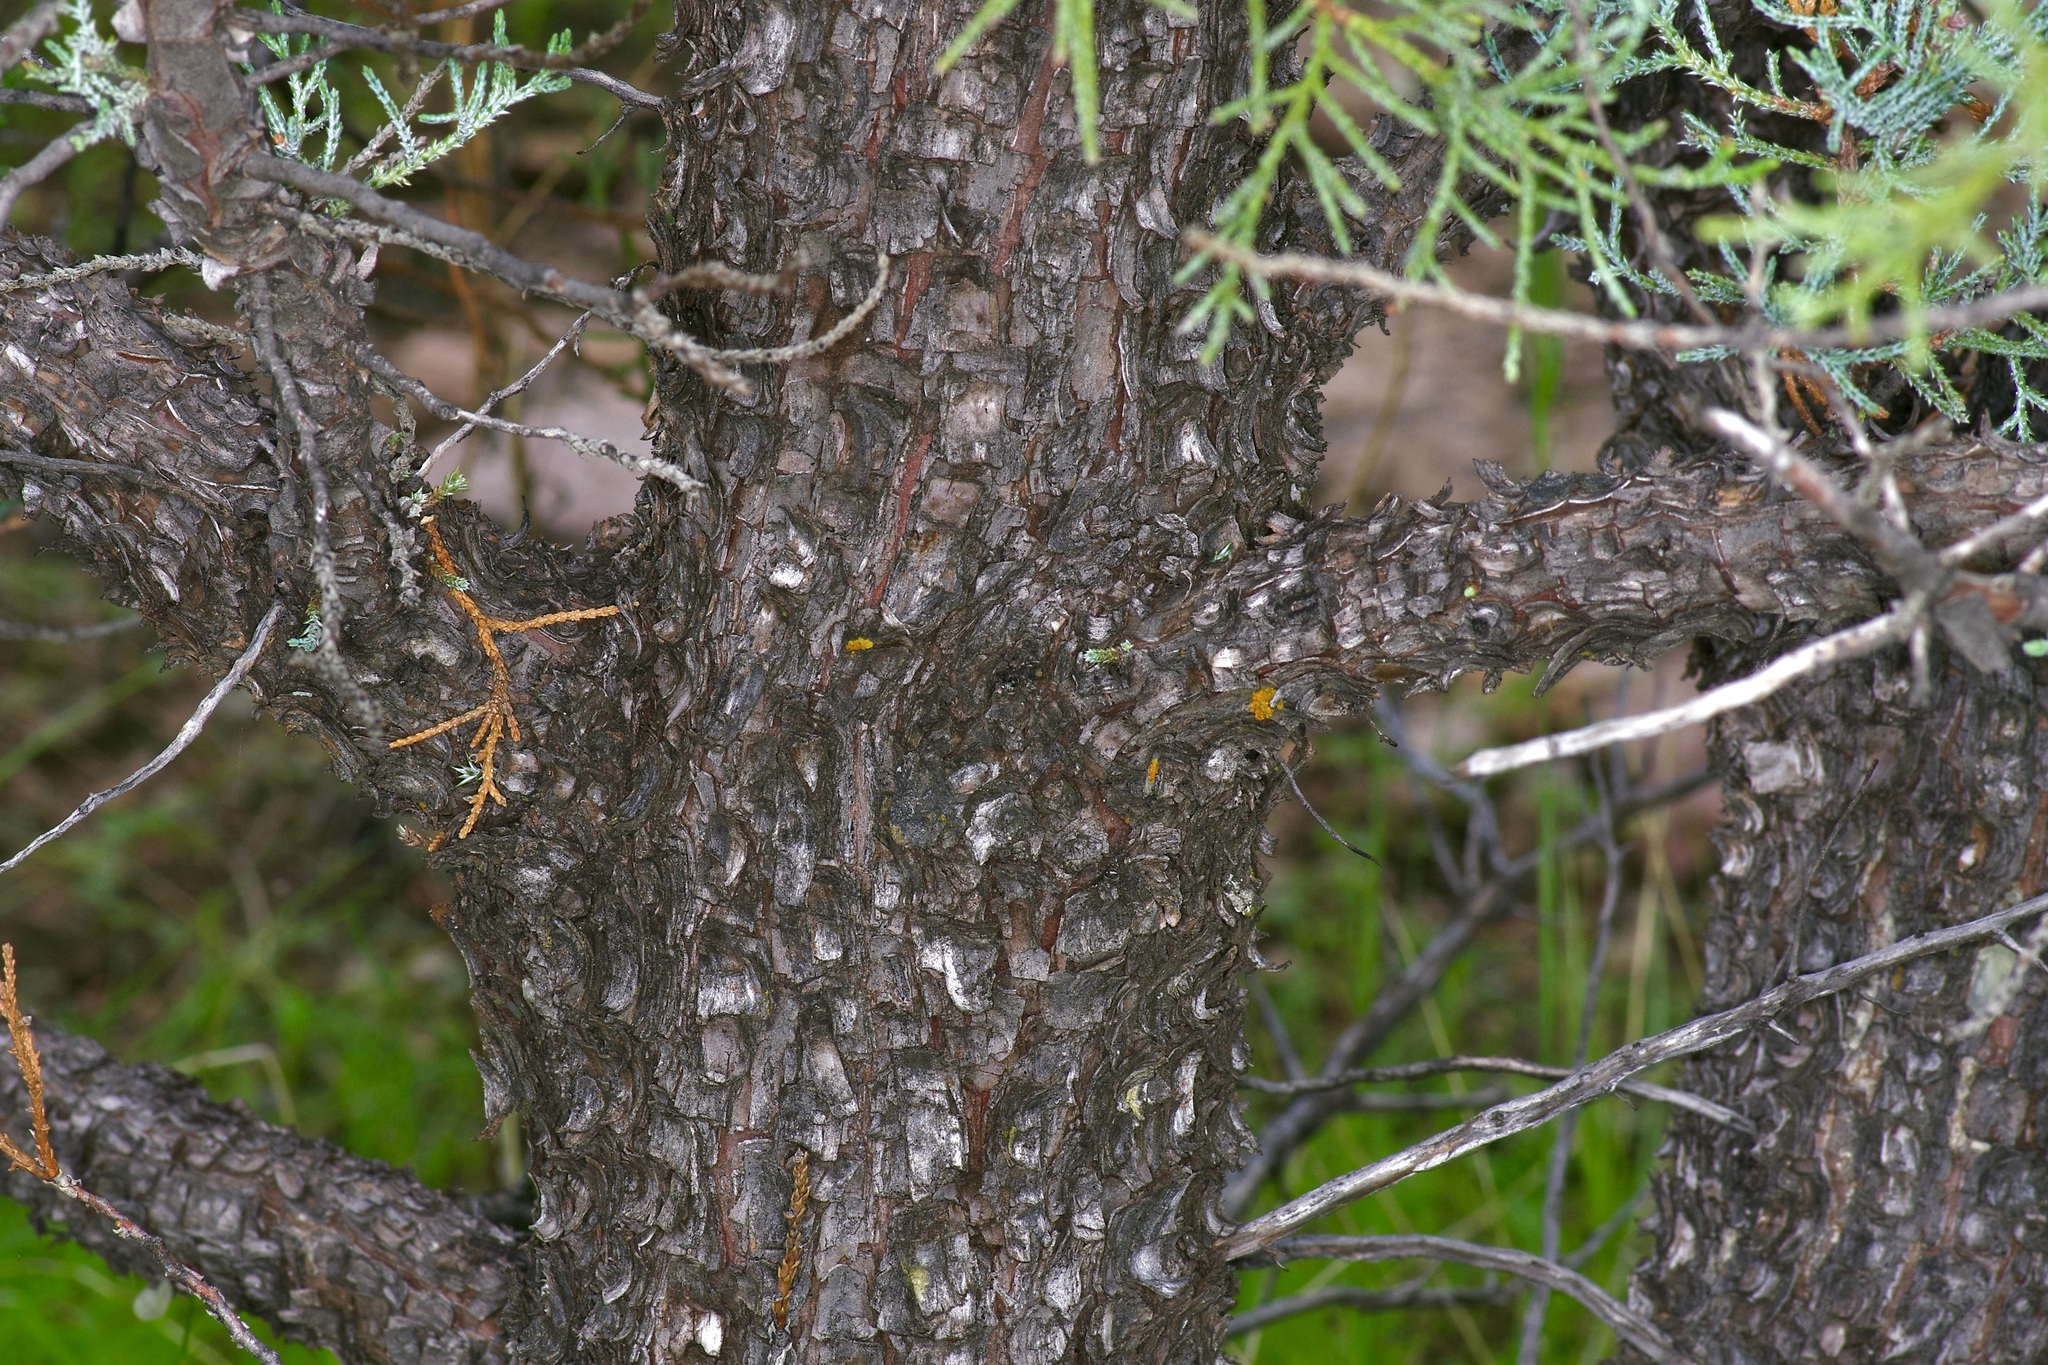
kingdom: Plantae
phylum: Tracheophyta
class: Pinopsida
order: Pinales
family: Cupressaceae
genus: Juniperus
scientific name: Juniperus deppeana
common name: Alligator juniper
